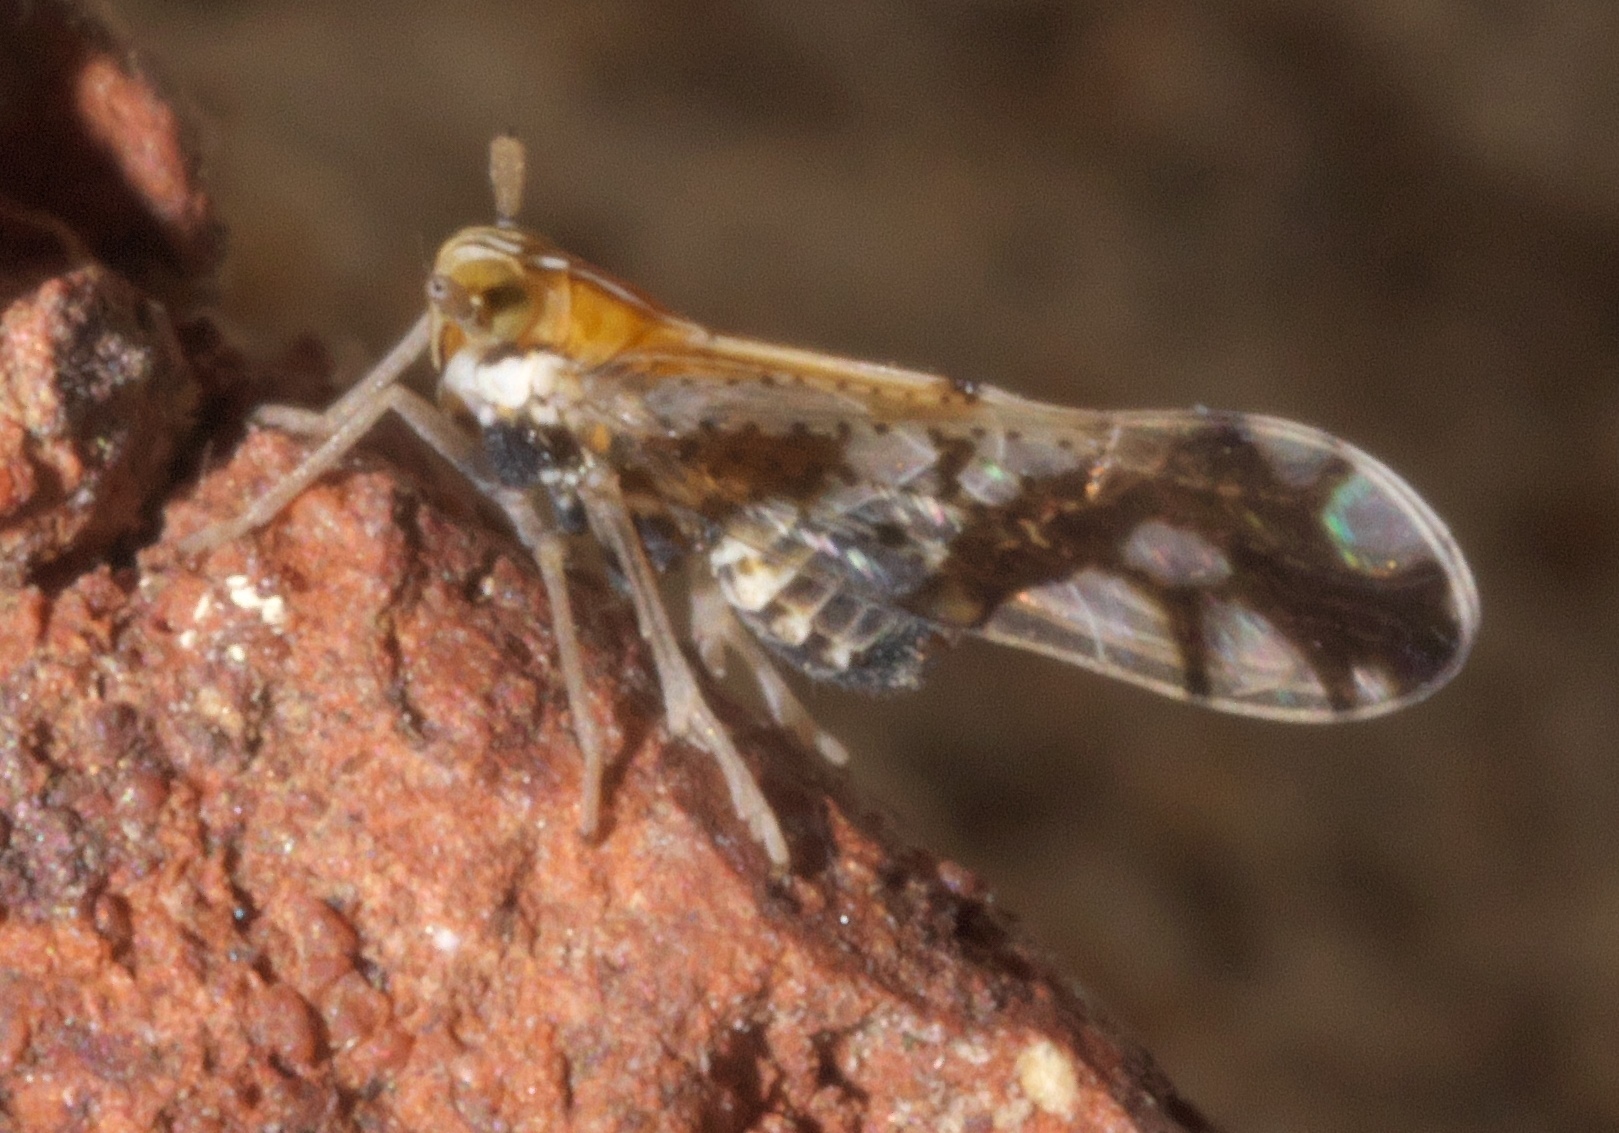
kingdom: Animalia
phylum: Arthropoda
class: Insecta
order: Hemiptera
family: Delphacidae
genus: Liburniella
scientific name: Liburniella ornata
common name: Ornate planthopper
